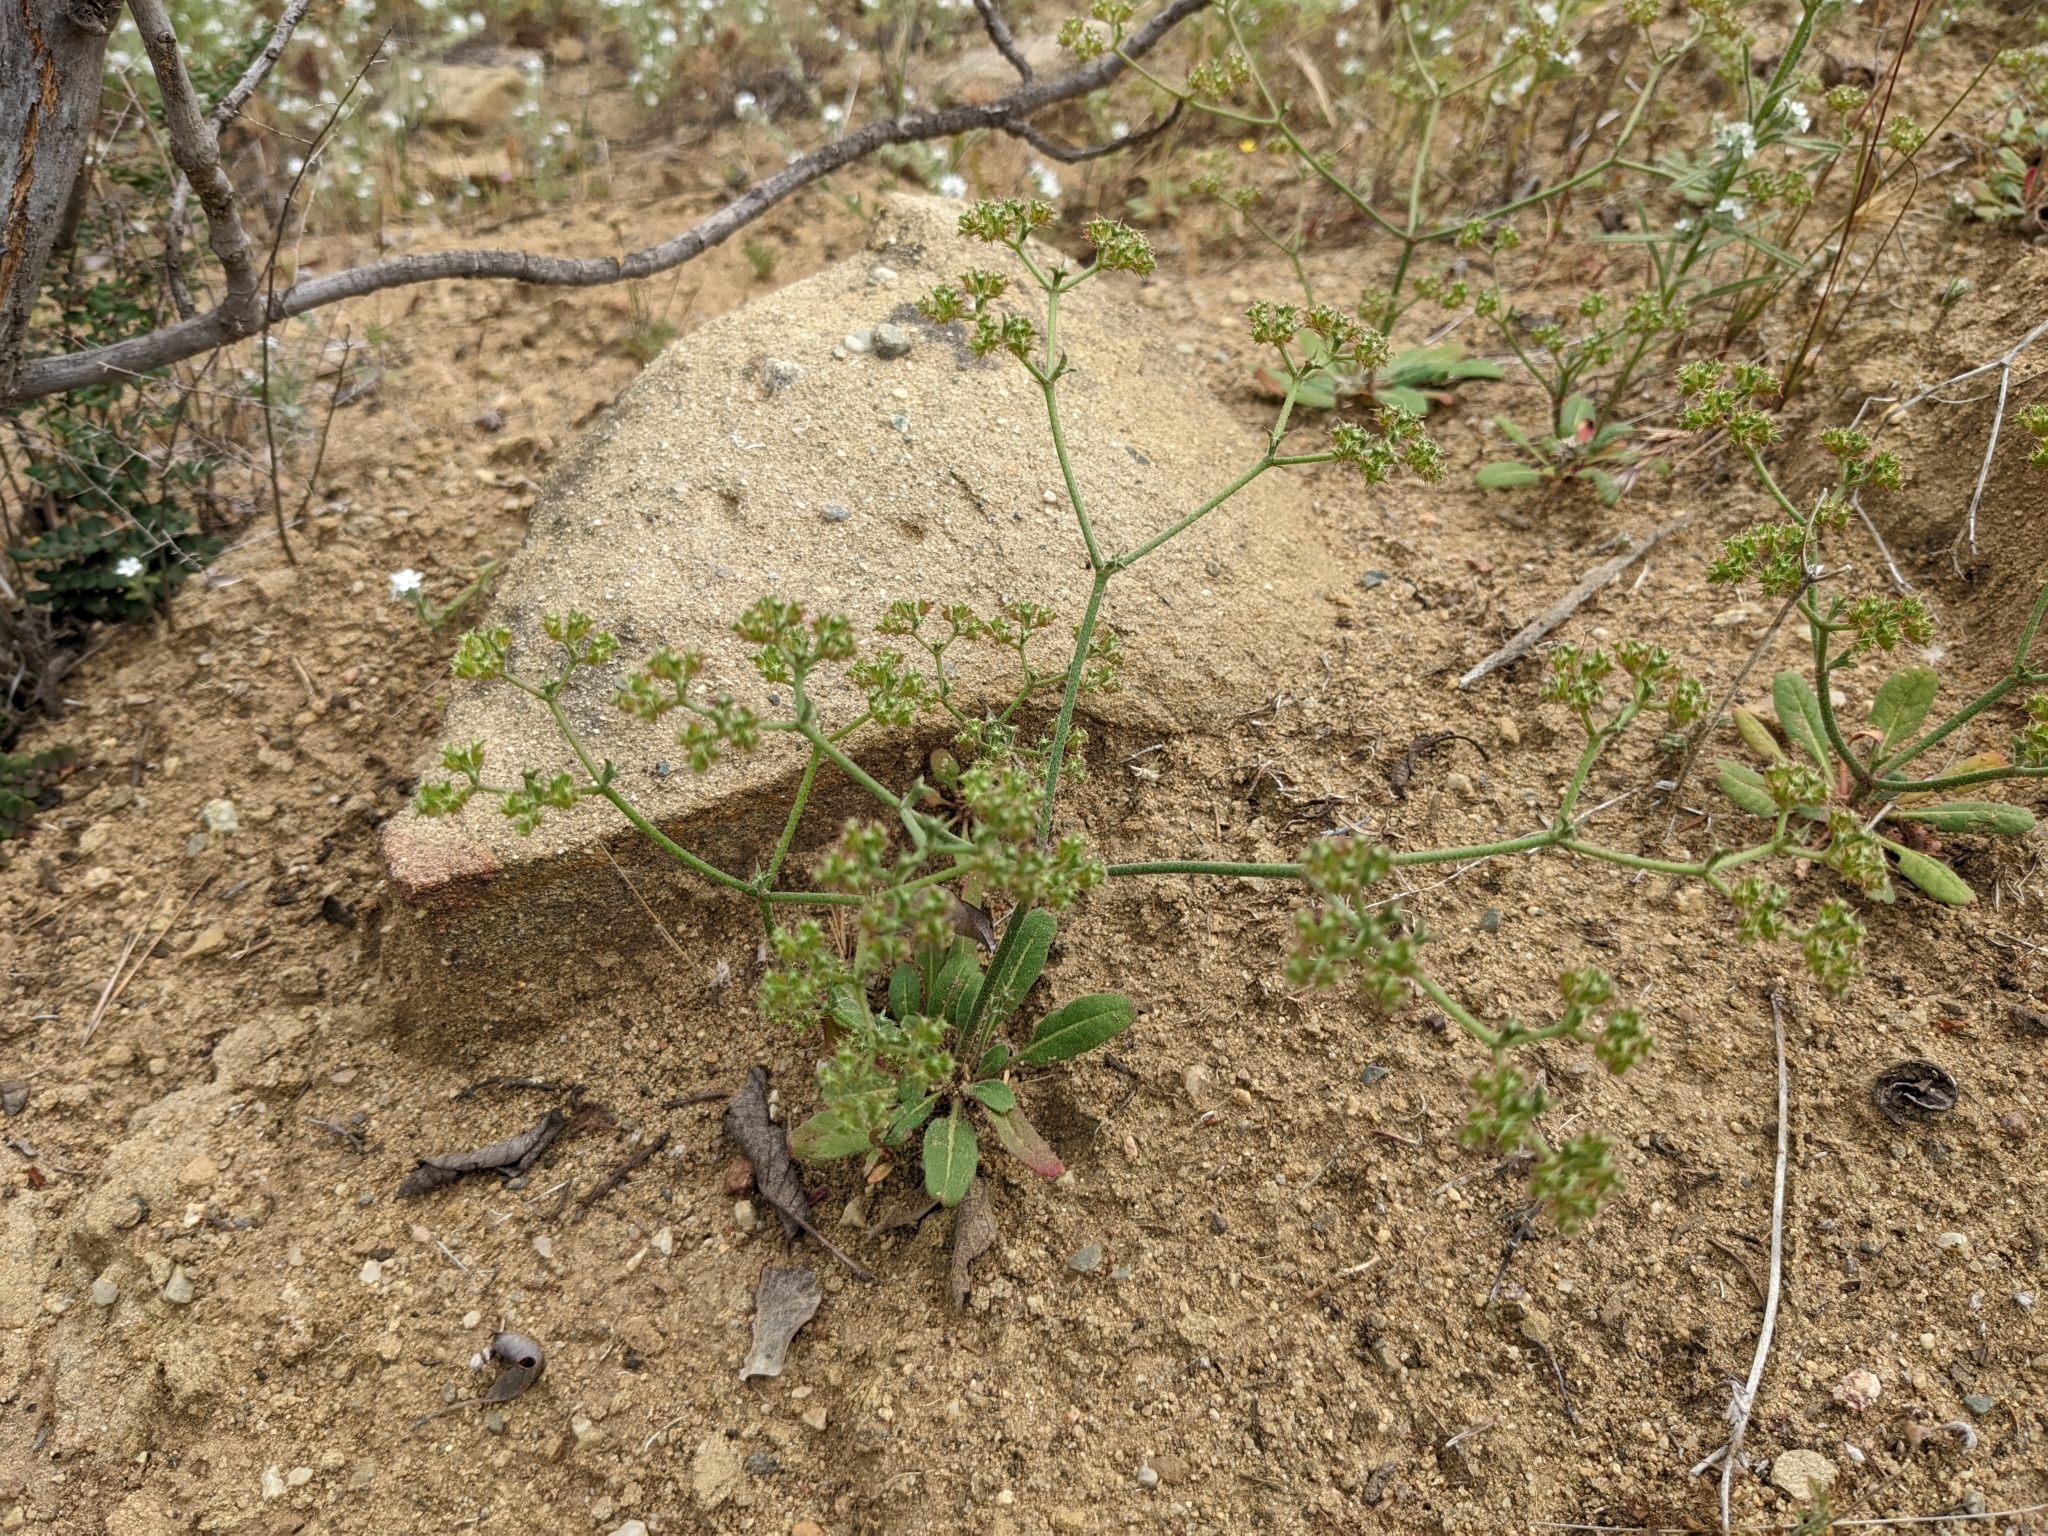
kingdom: Plantae
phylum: Tracheophyta
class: Magnoliopsida
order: Caryophyllales
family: Polygonaceae
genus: Chorizanthe
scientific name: Chorizanthe staticoides
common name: Turkish rugging
